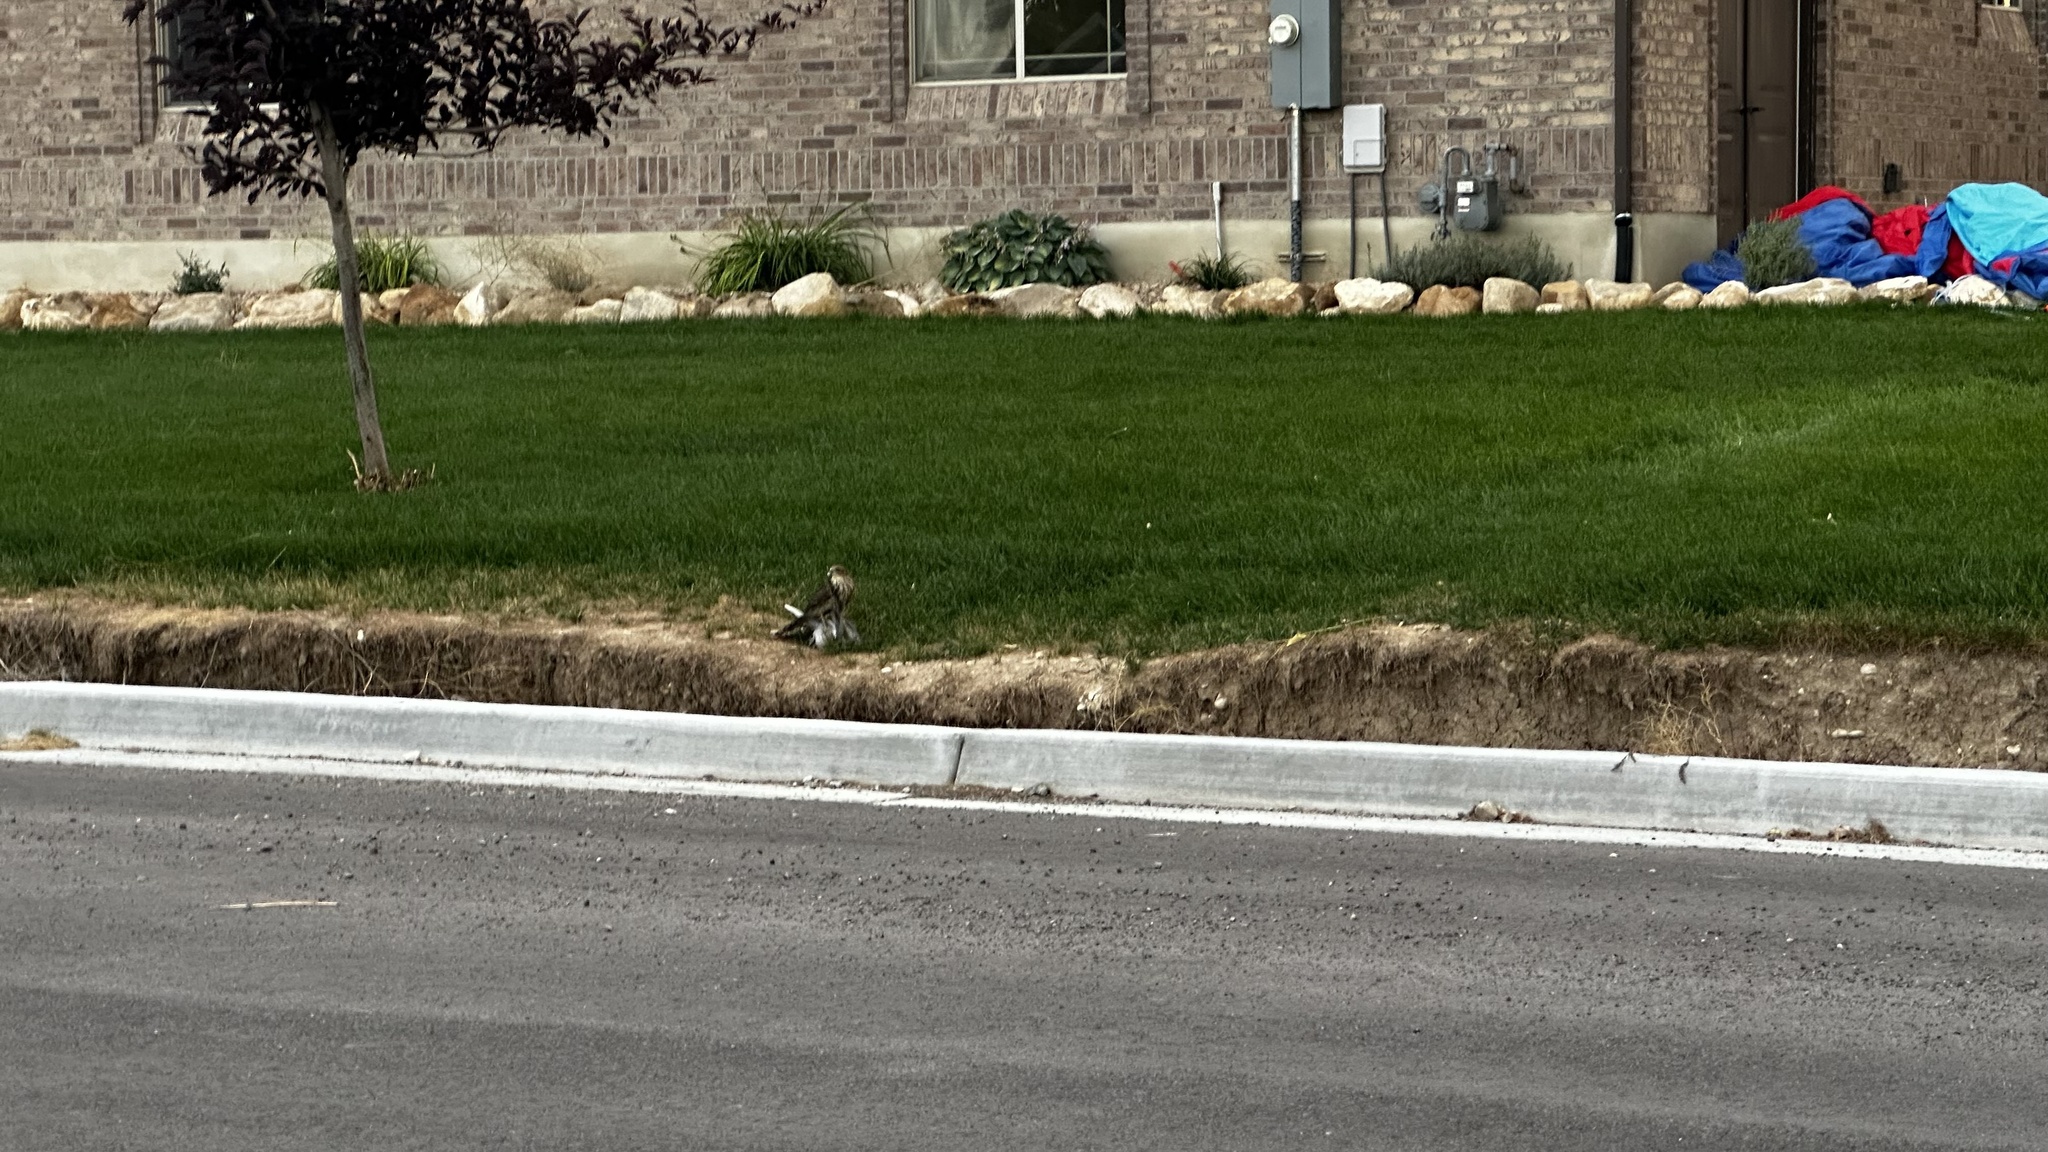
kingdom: Animalia
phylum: Chordata
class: Aves
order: Accipitriformes
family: Accipitridae
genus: Accipiter
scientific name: Accipiter striatus
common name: Sharp-shinned hawk
